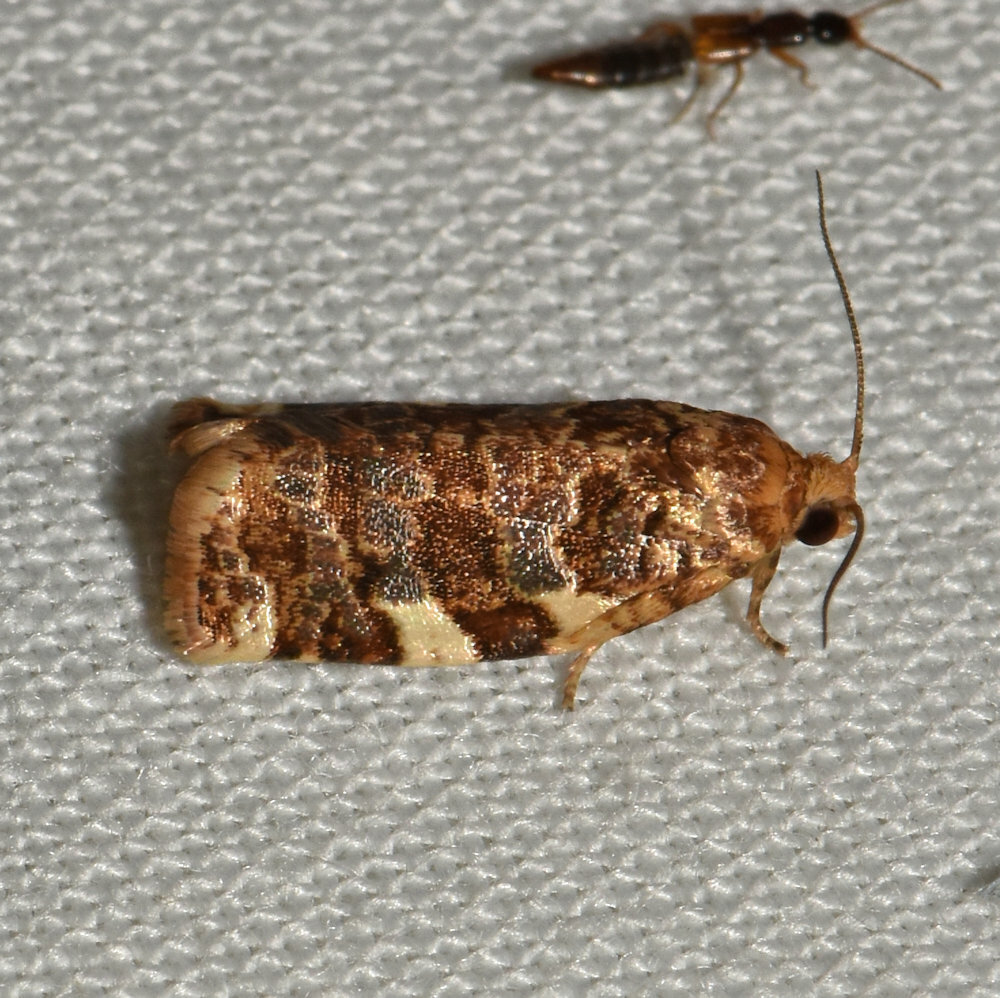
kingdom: Animalia
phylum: Arthropoda
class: Insecta
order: Lepidoptera
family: Tortricidae
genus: Archips
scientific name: Archips argyrospila
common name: Fruit-tree leafroller moth
